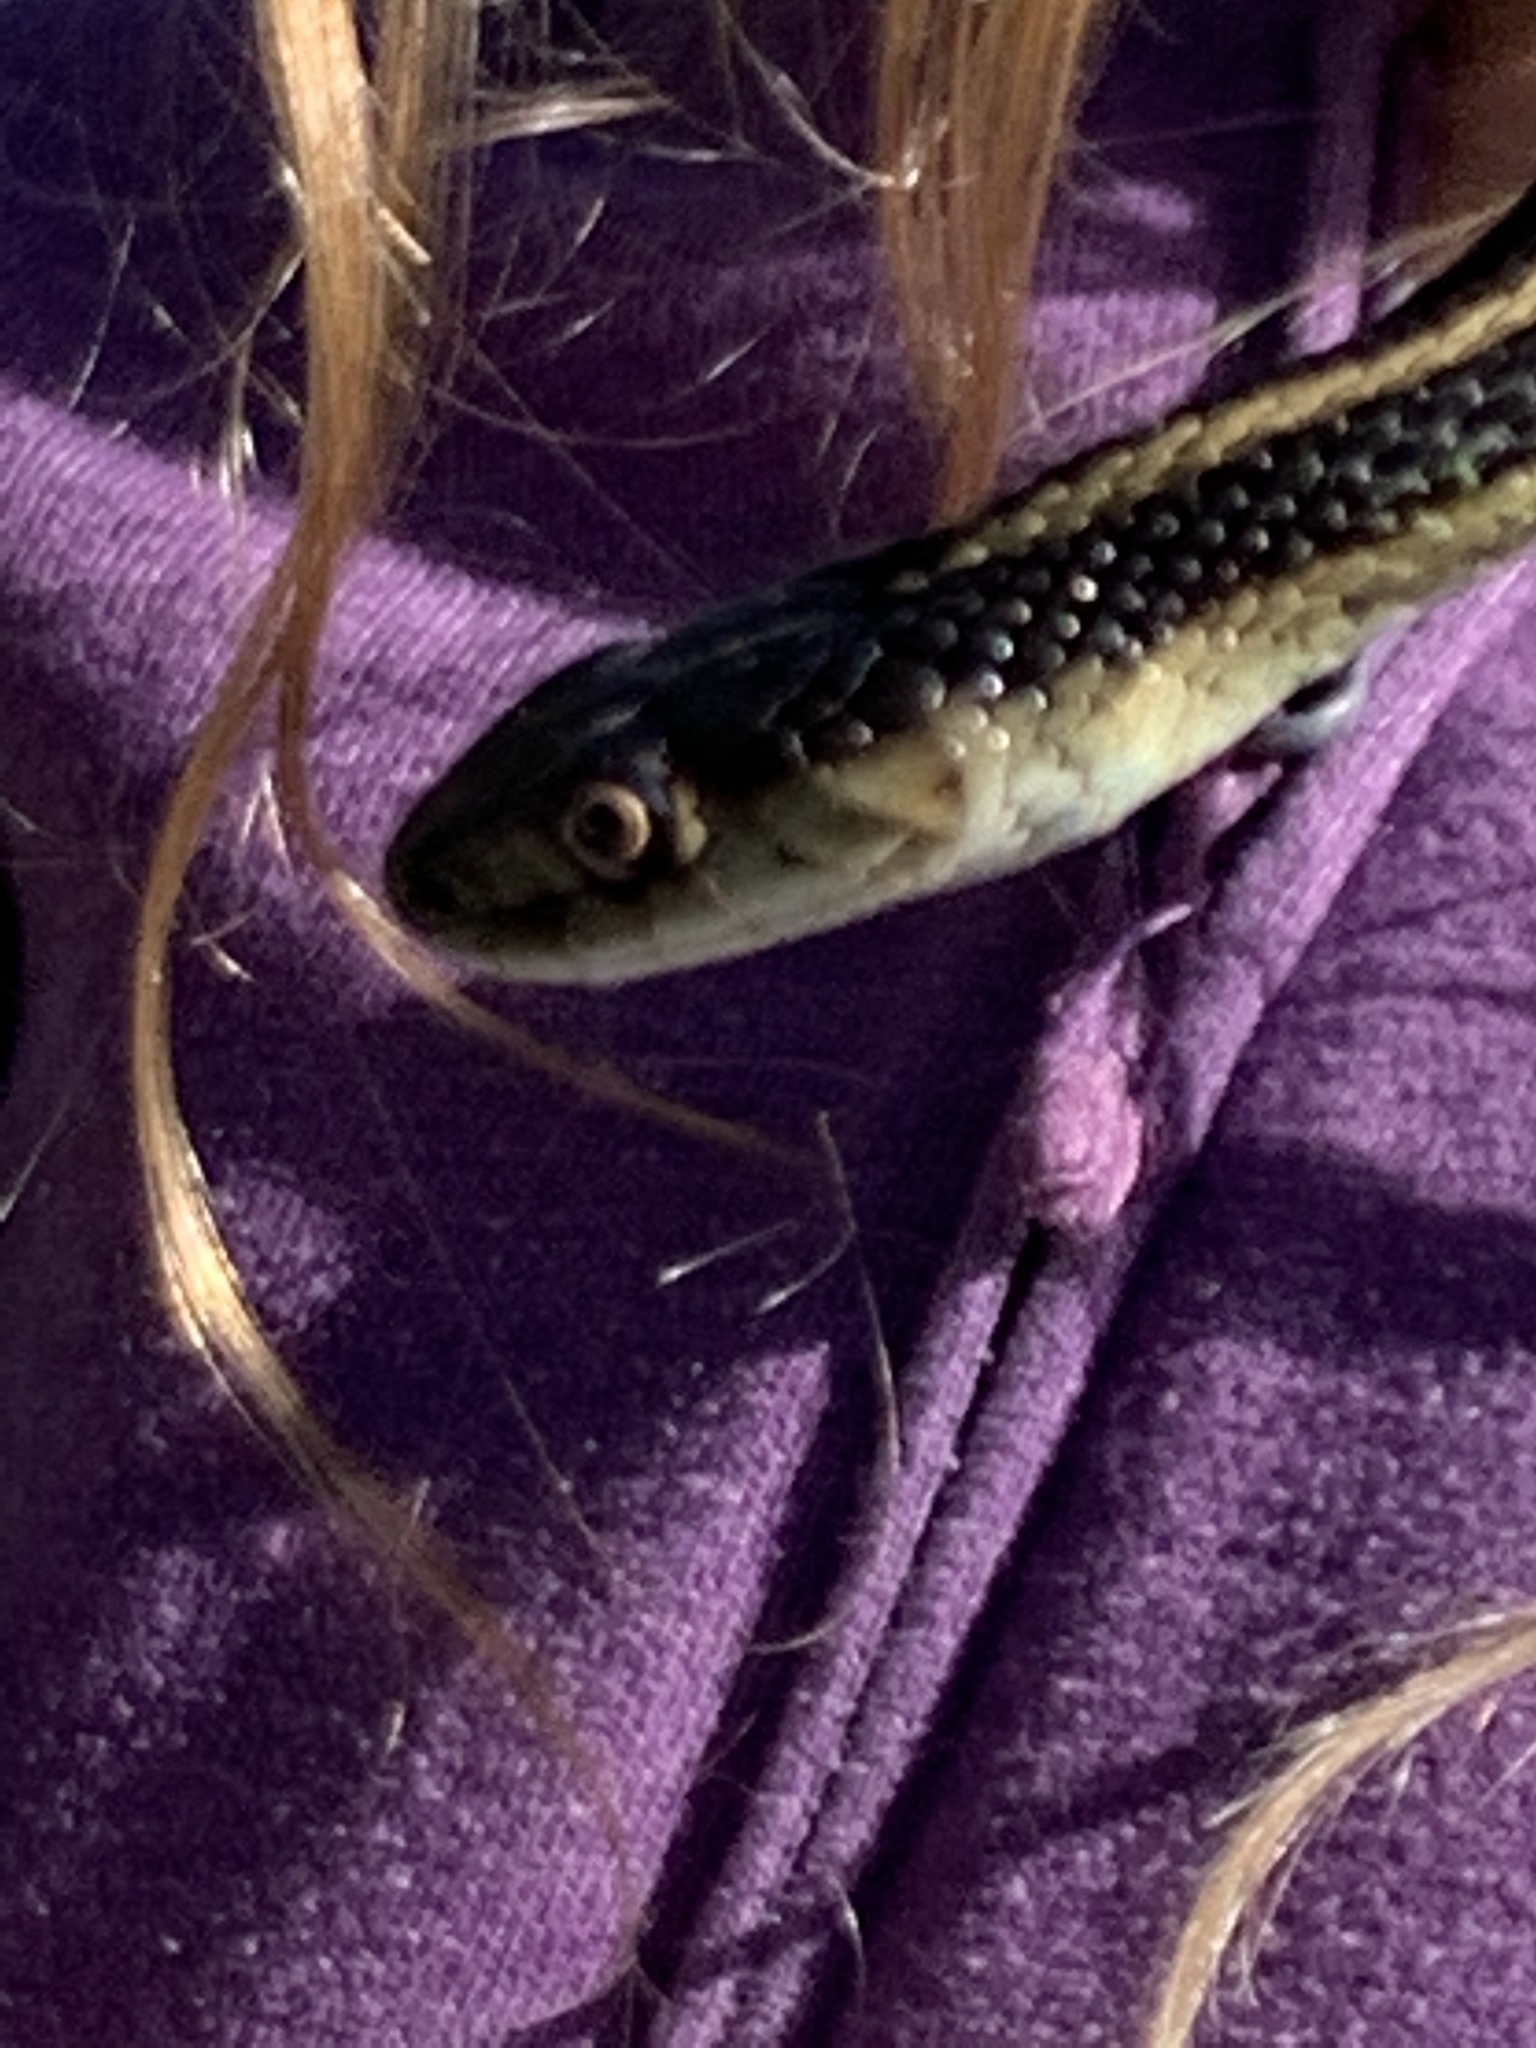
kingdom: Animalia
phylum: Chordata
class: Squamata
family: Colubridae
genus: Thamnophis
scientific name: Thamnophis sirtalis
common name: Common garter snake
